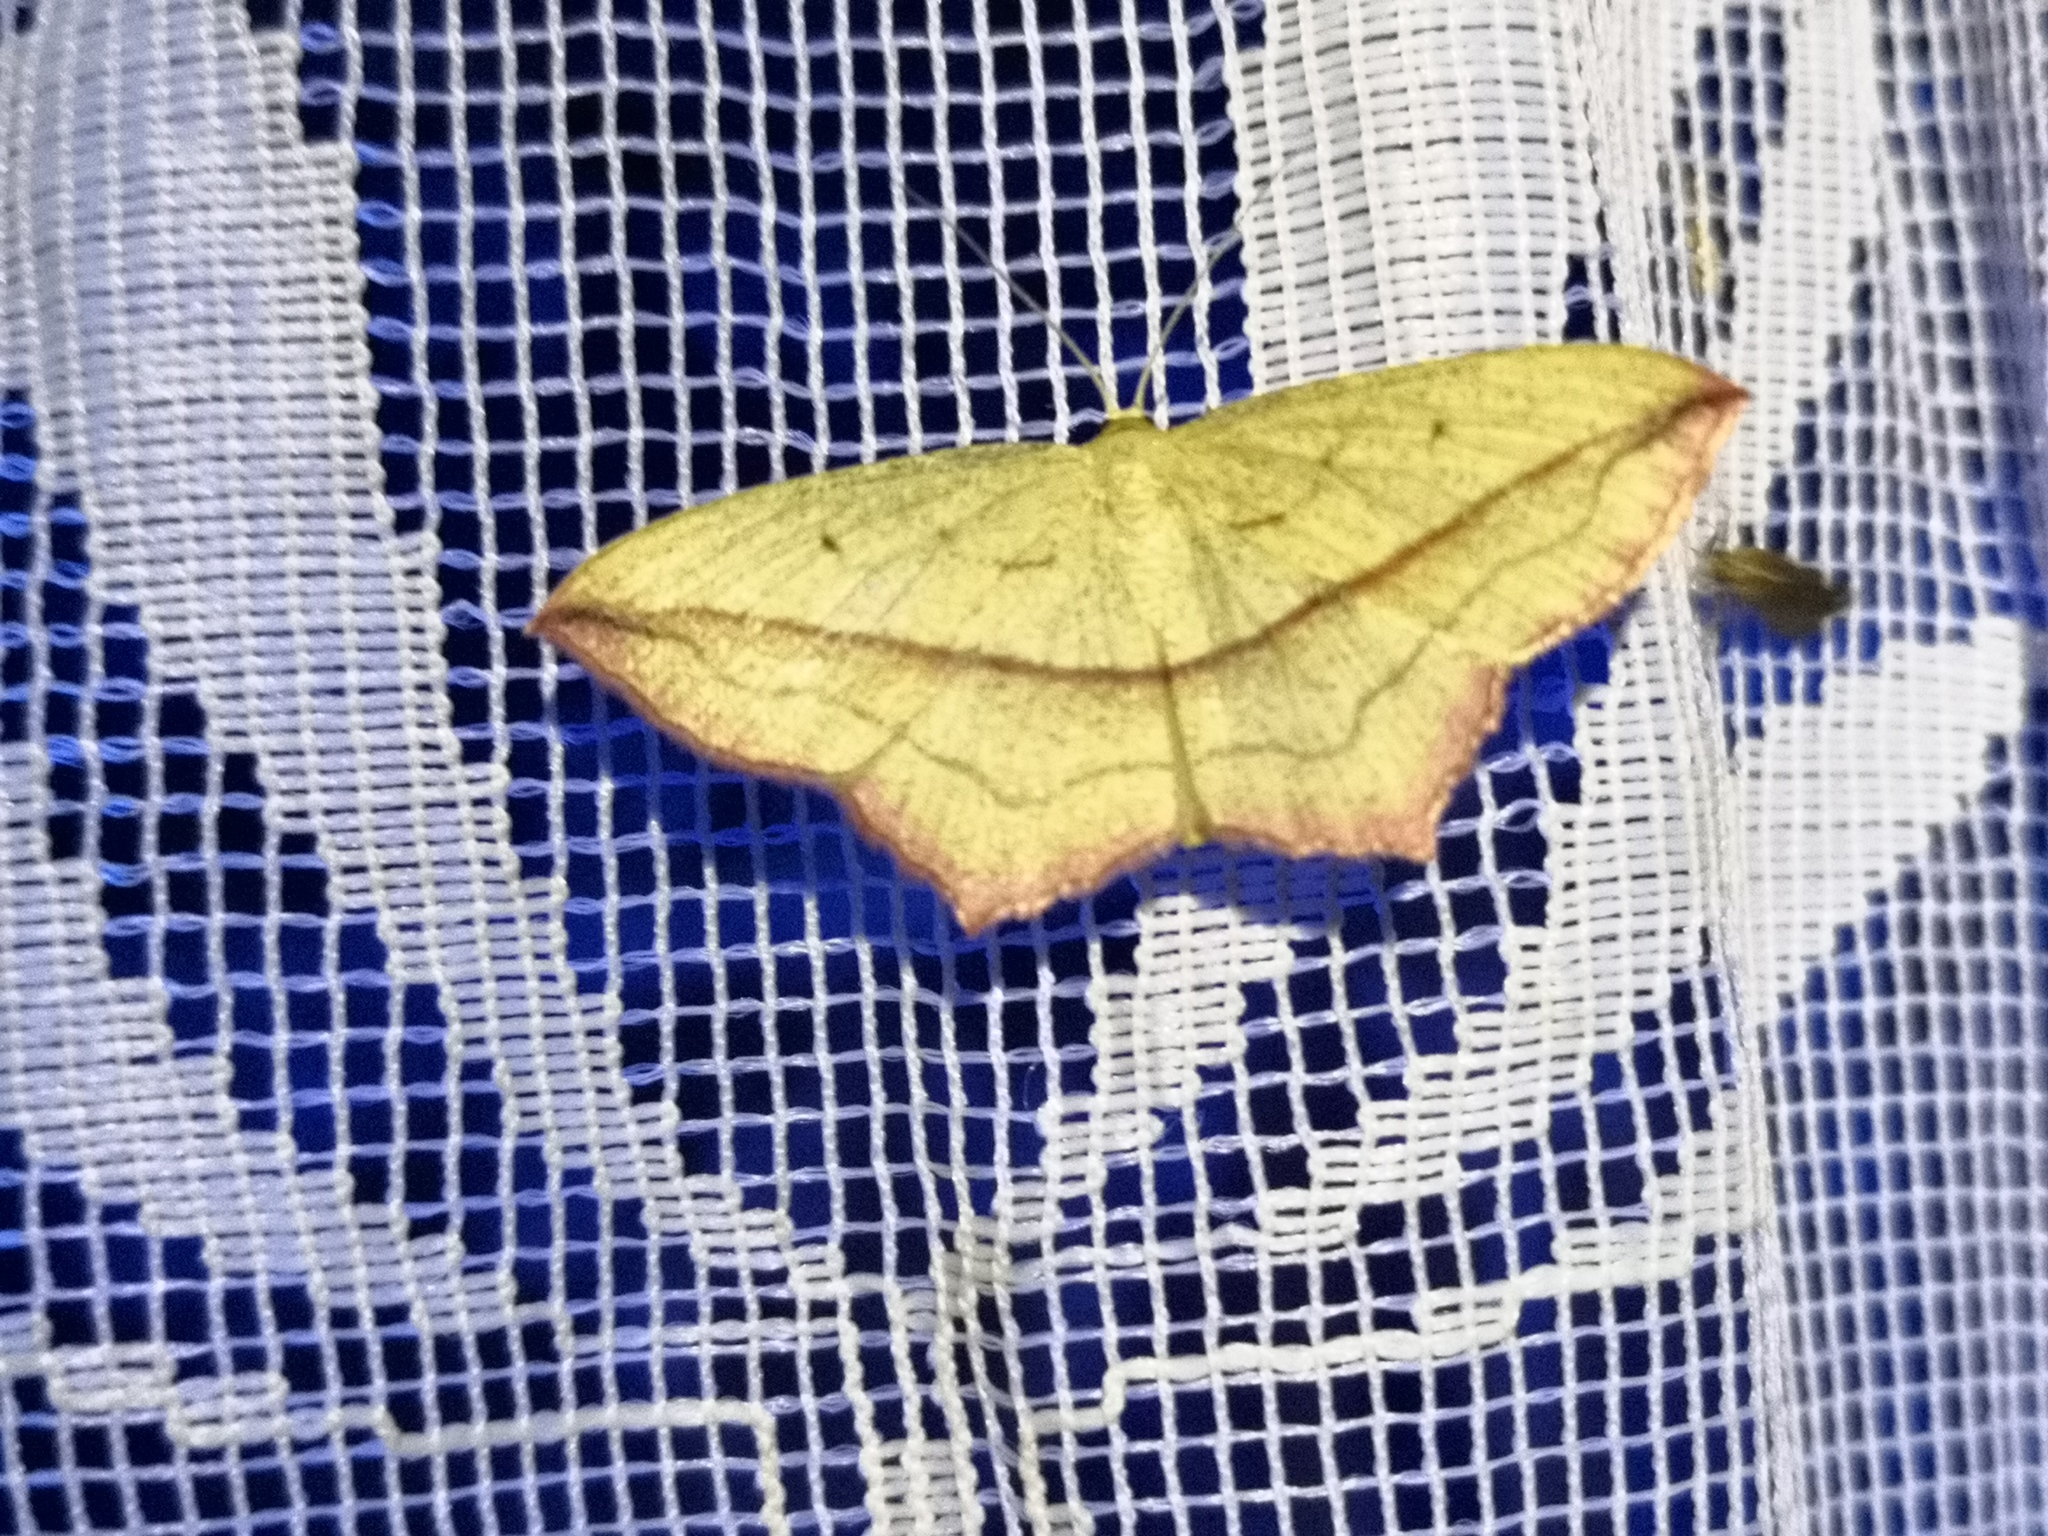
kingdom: Animalia
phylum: Arthropoda
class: Insecta
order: Lepidoptera
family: Geometridae
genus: Timandra
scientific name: Timandra comae
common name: Blood-vein
